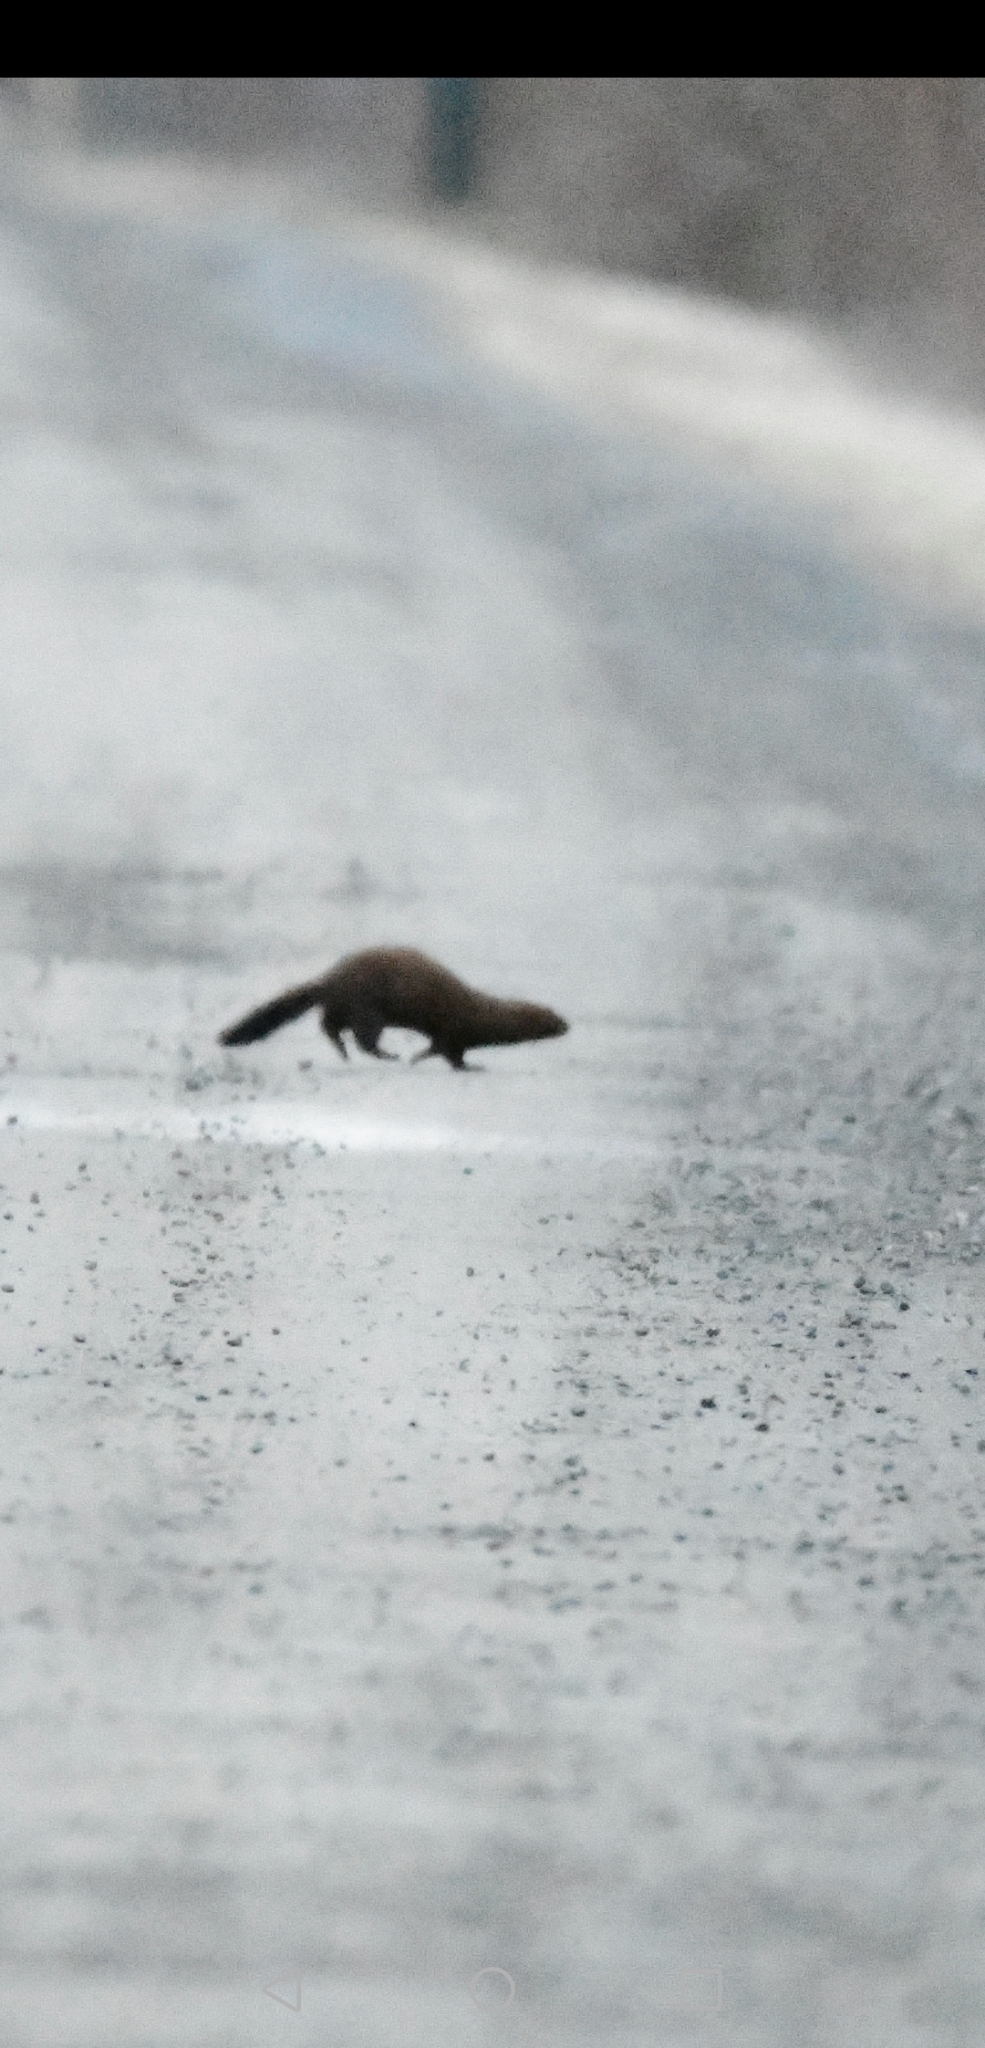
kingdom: Animalia
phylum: Chordata
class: Mammalia
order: Carnivora
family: Mustelidae
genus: Mustela
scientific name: Mustela
